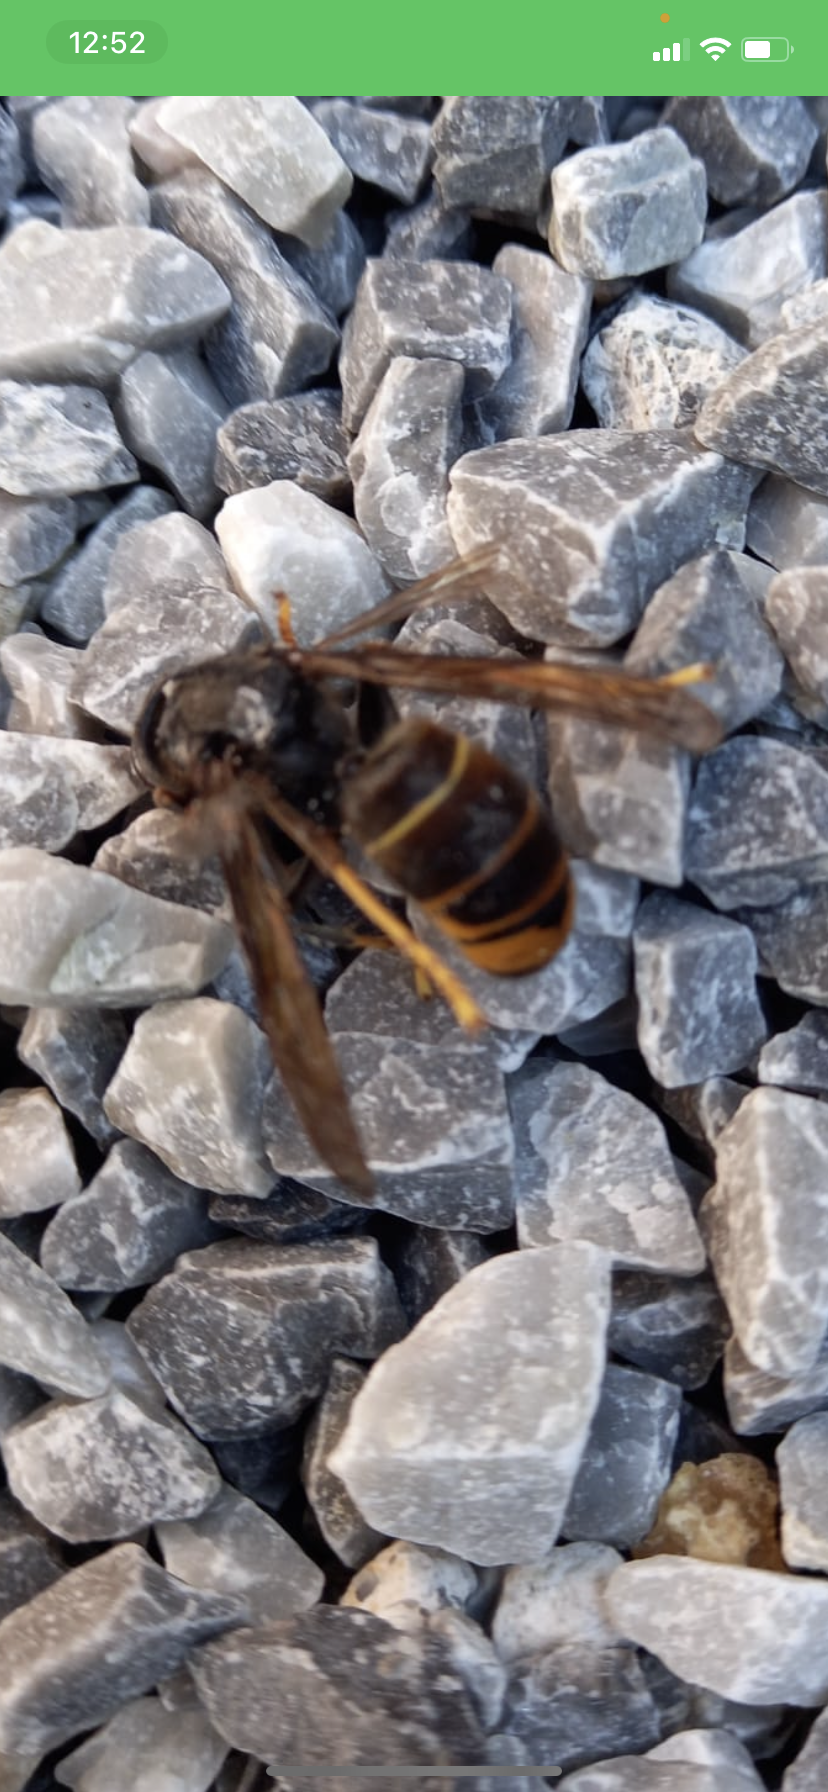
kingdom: Animalia
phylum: Arthropoda
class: Insecta
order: Hymenoptera
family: Vespidae
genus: Vespa
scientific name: Vespa velutina
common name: Asian hornet
